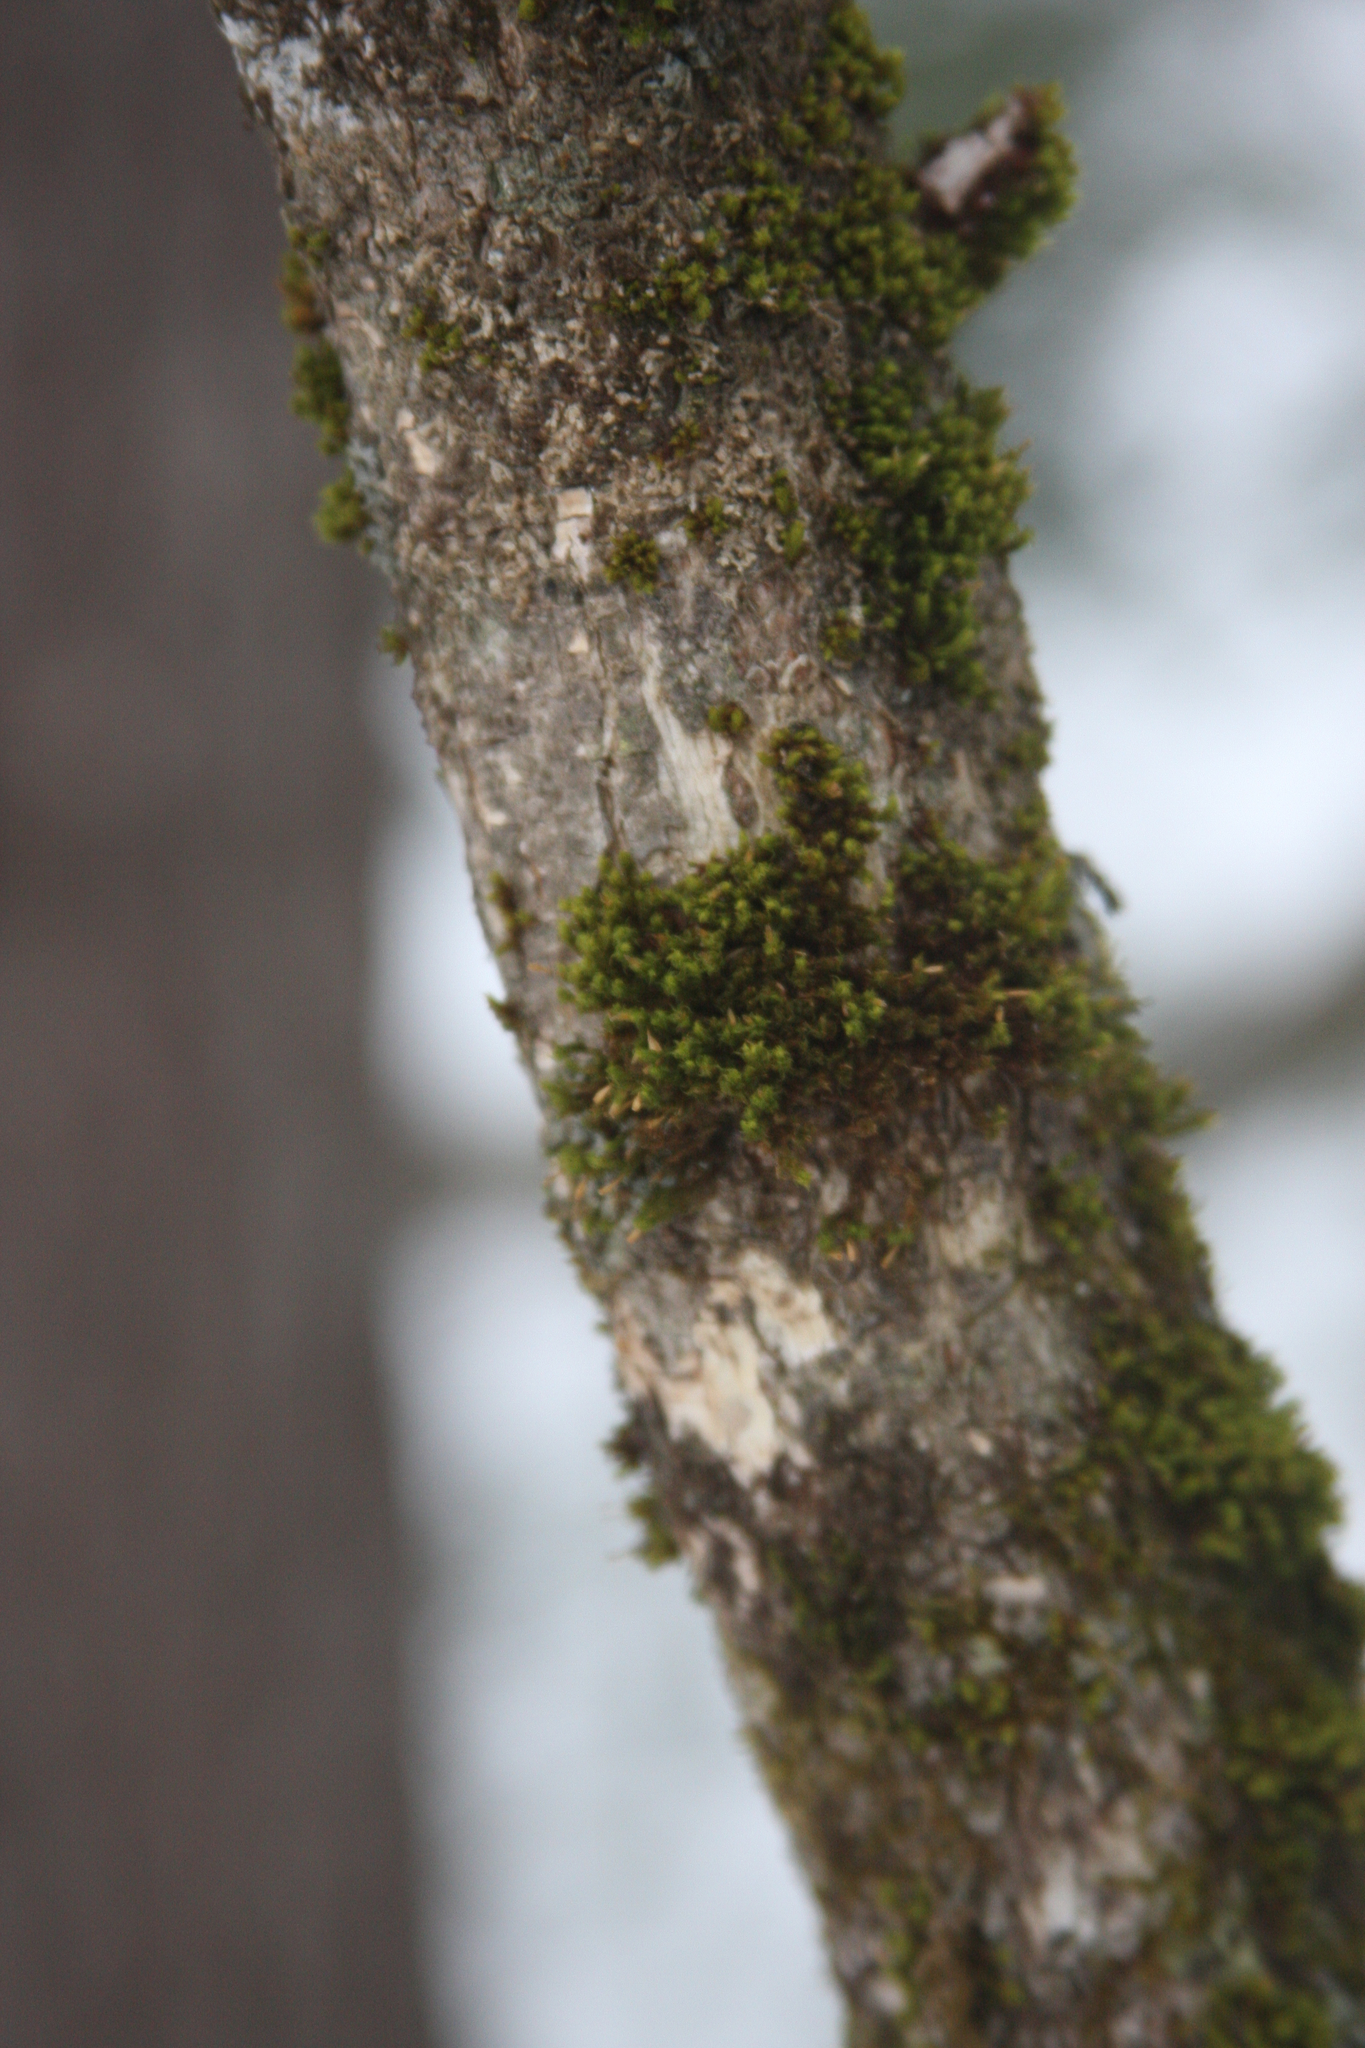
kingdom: Plantae
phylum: Bryophyta
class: Bryopsida
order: Orthotrichales
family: Orthotrichaceae
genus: Ulota
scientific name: Ulota crispa
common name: Crisped pincushion moss
